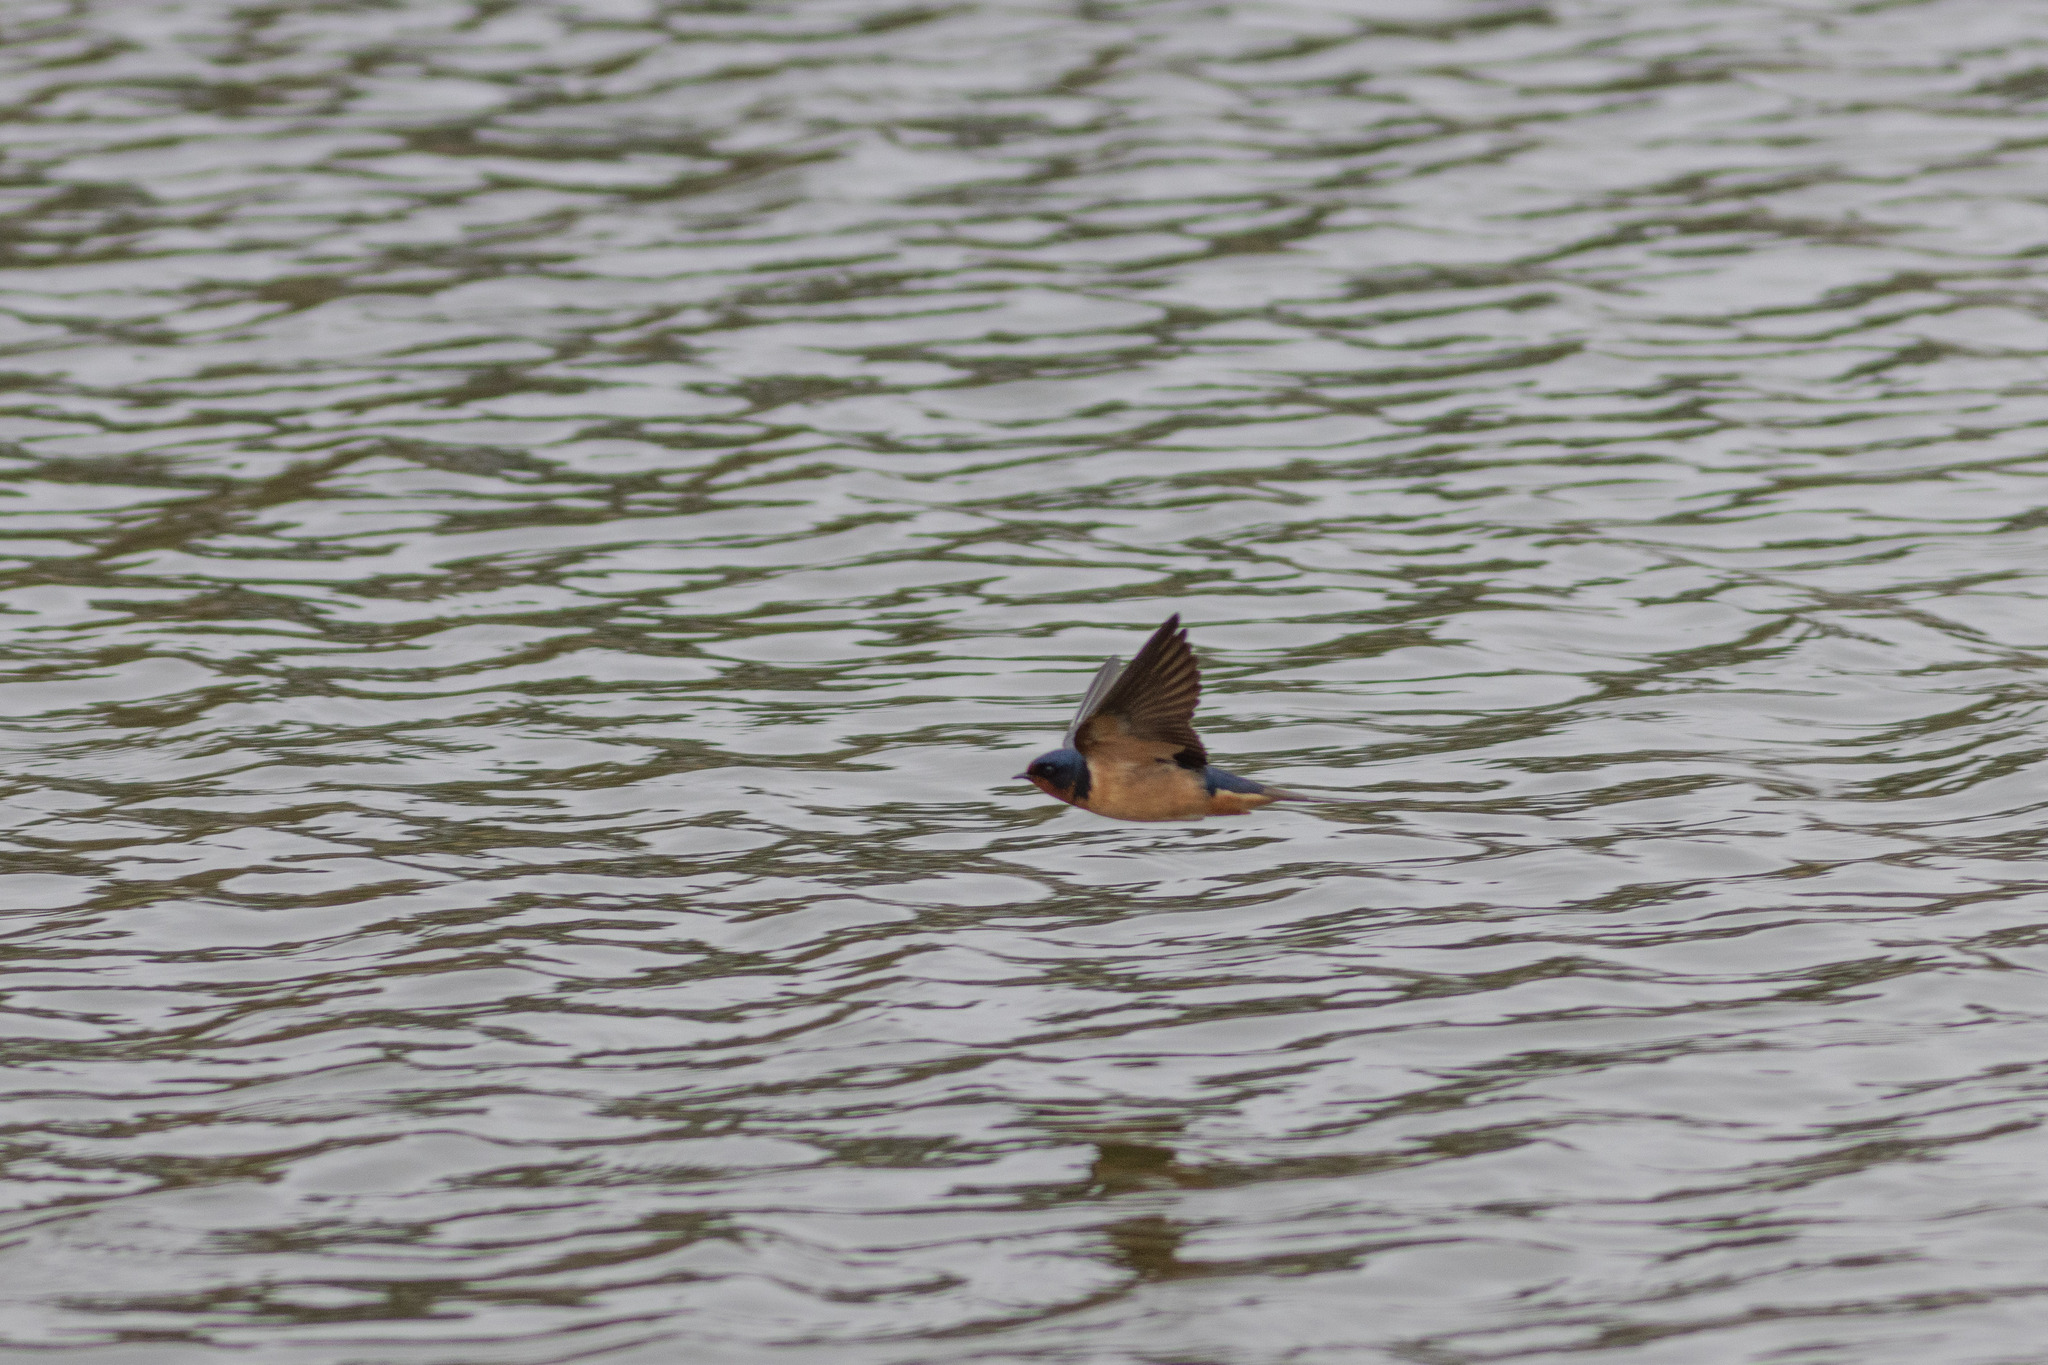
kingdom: Animalia
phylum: Chordata
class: Aves
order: Passeriformes
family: Hirundinidae
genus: Hirundo
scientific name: Hirundo rustica
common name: Barn swallow
